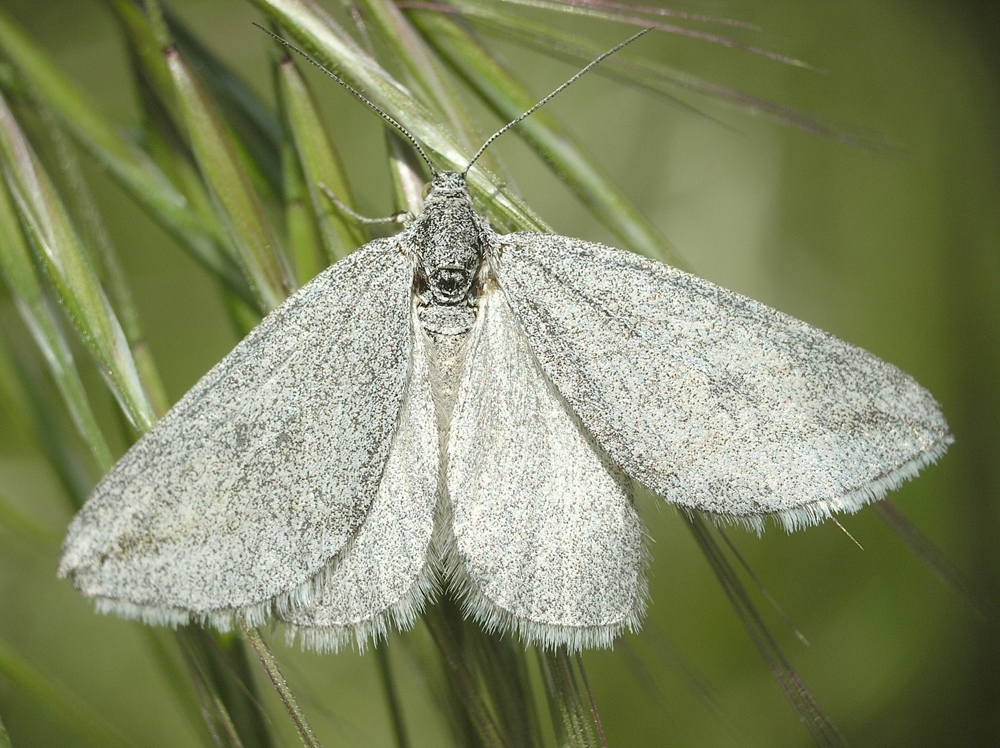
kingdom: Animalia
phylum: Arthropoda
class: Insecta
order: Lepidoptera
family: Geometridae
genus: Lithostege
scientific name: Lithostege griseata
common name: Grey carpet
